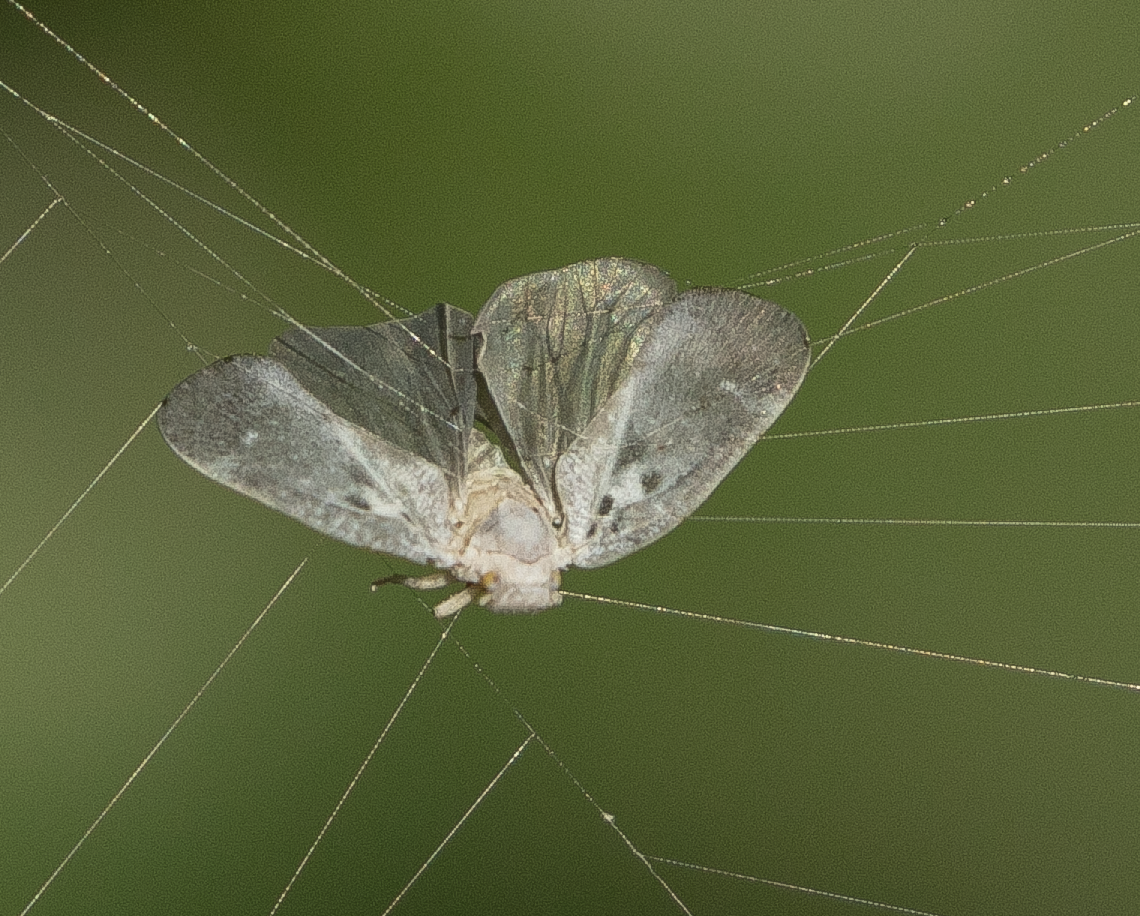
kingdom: Animalia
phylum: Arthropoda
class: Insecta
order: Hemiptera
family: Flatidae
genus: Metcalfa
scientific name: Metcalfa pruinosa
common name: Citrus flatid planthopper
